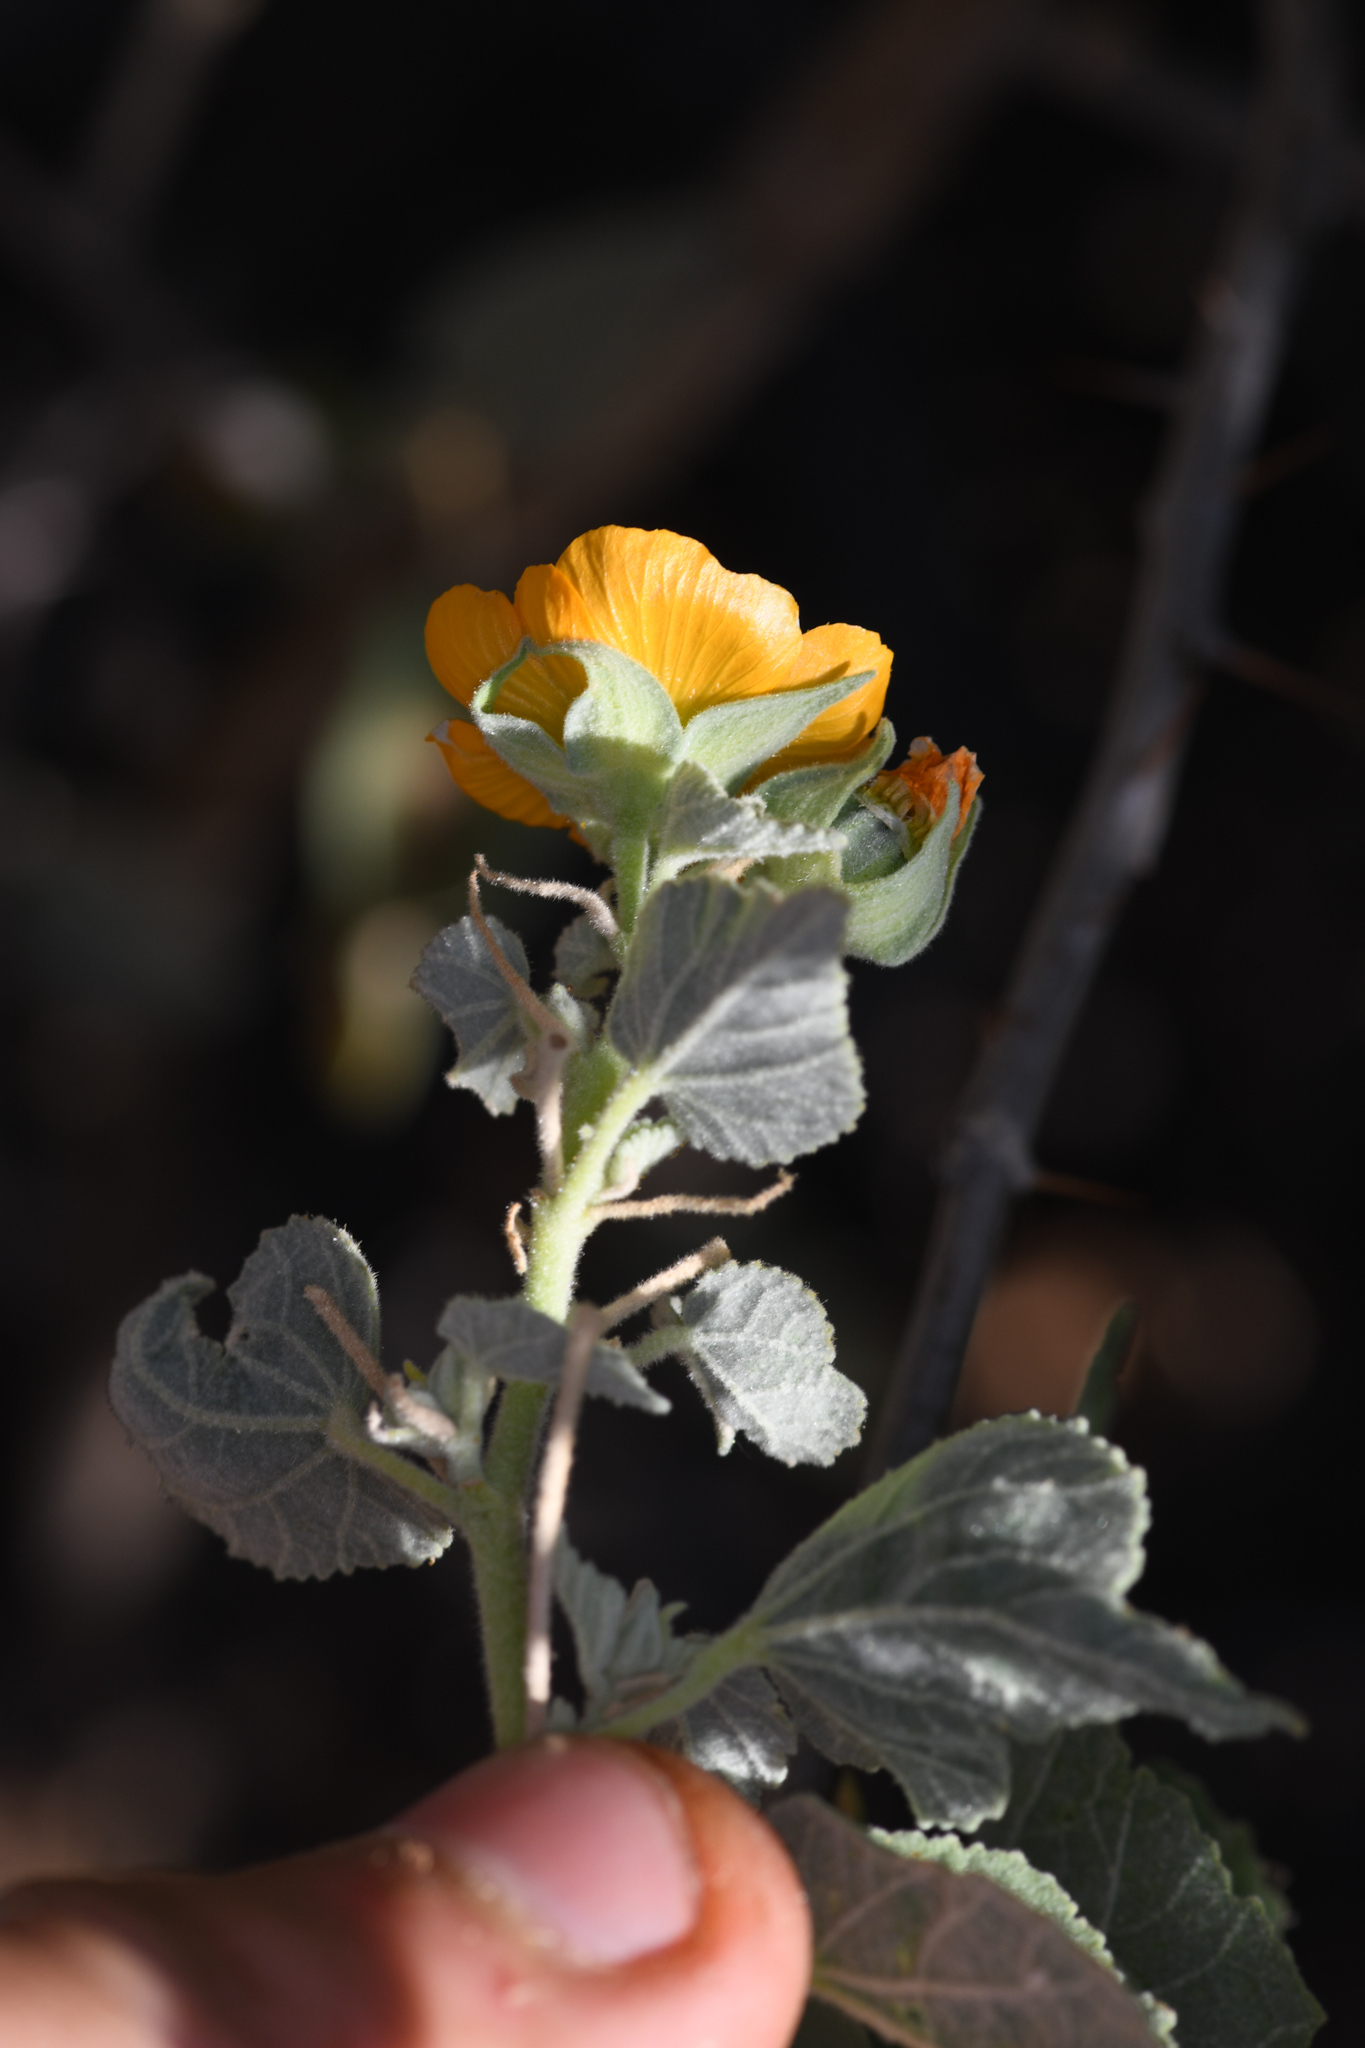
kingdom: Plantae
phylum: Tracheophyta
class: Magnoliopsida
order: Malvales
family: Malvaceae
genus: Abutilon
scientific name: Abutilon abutiloides
